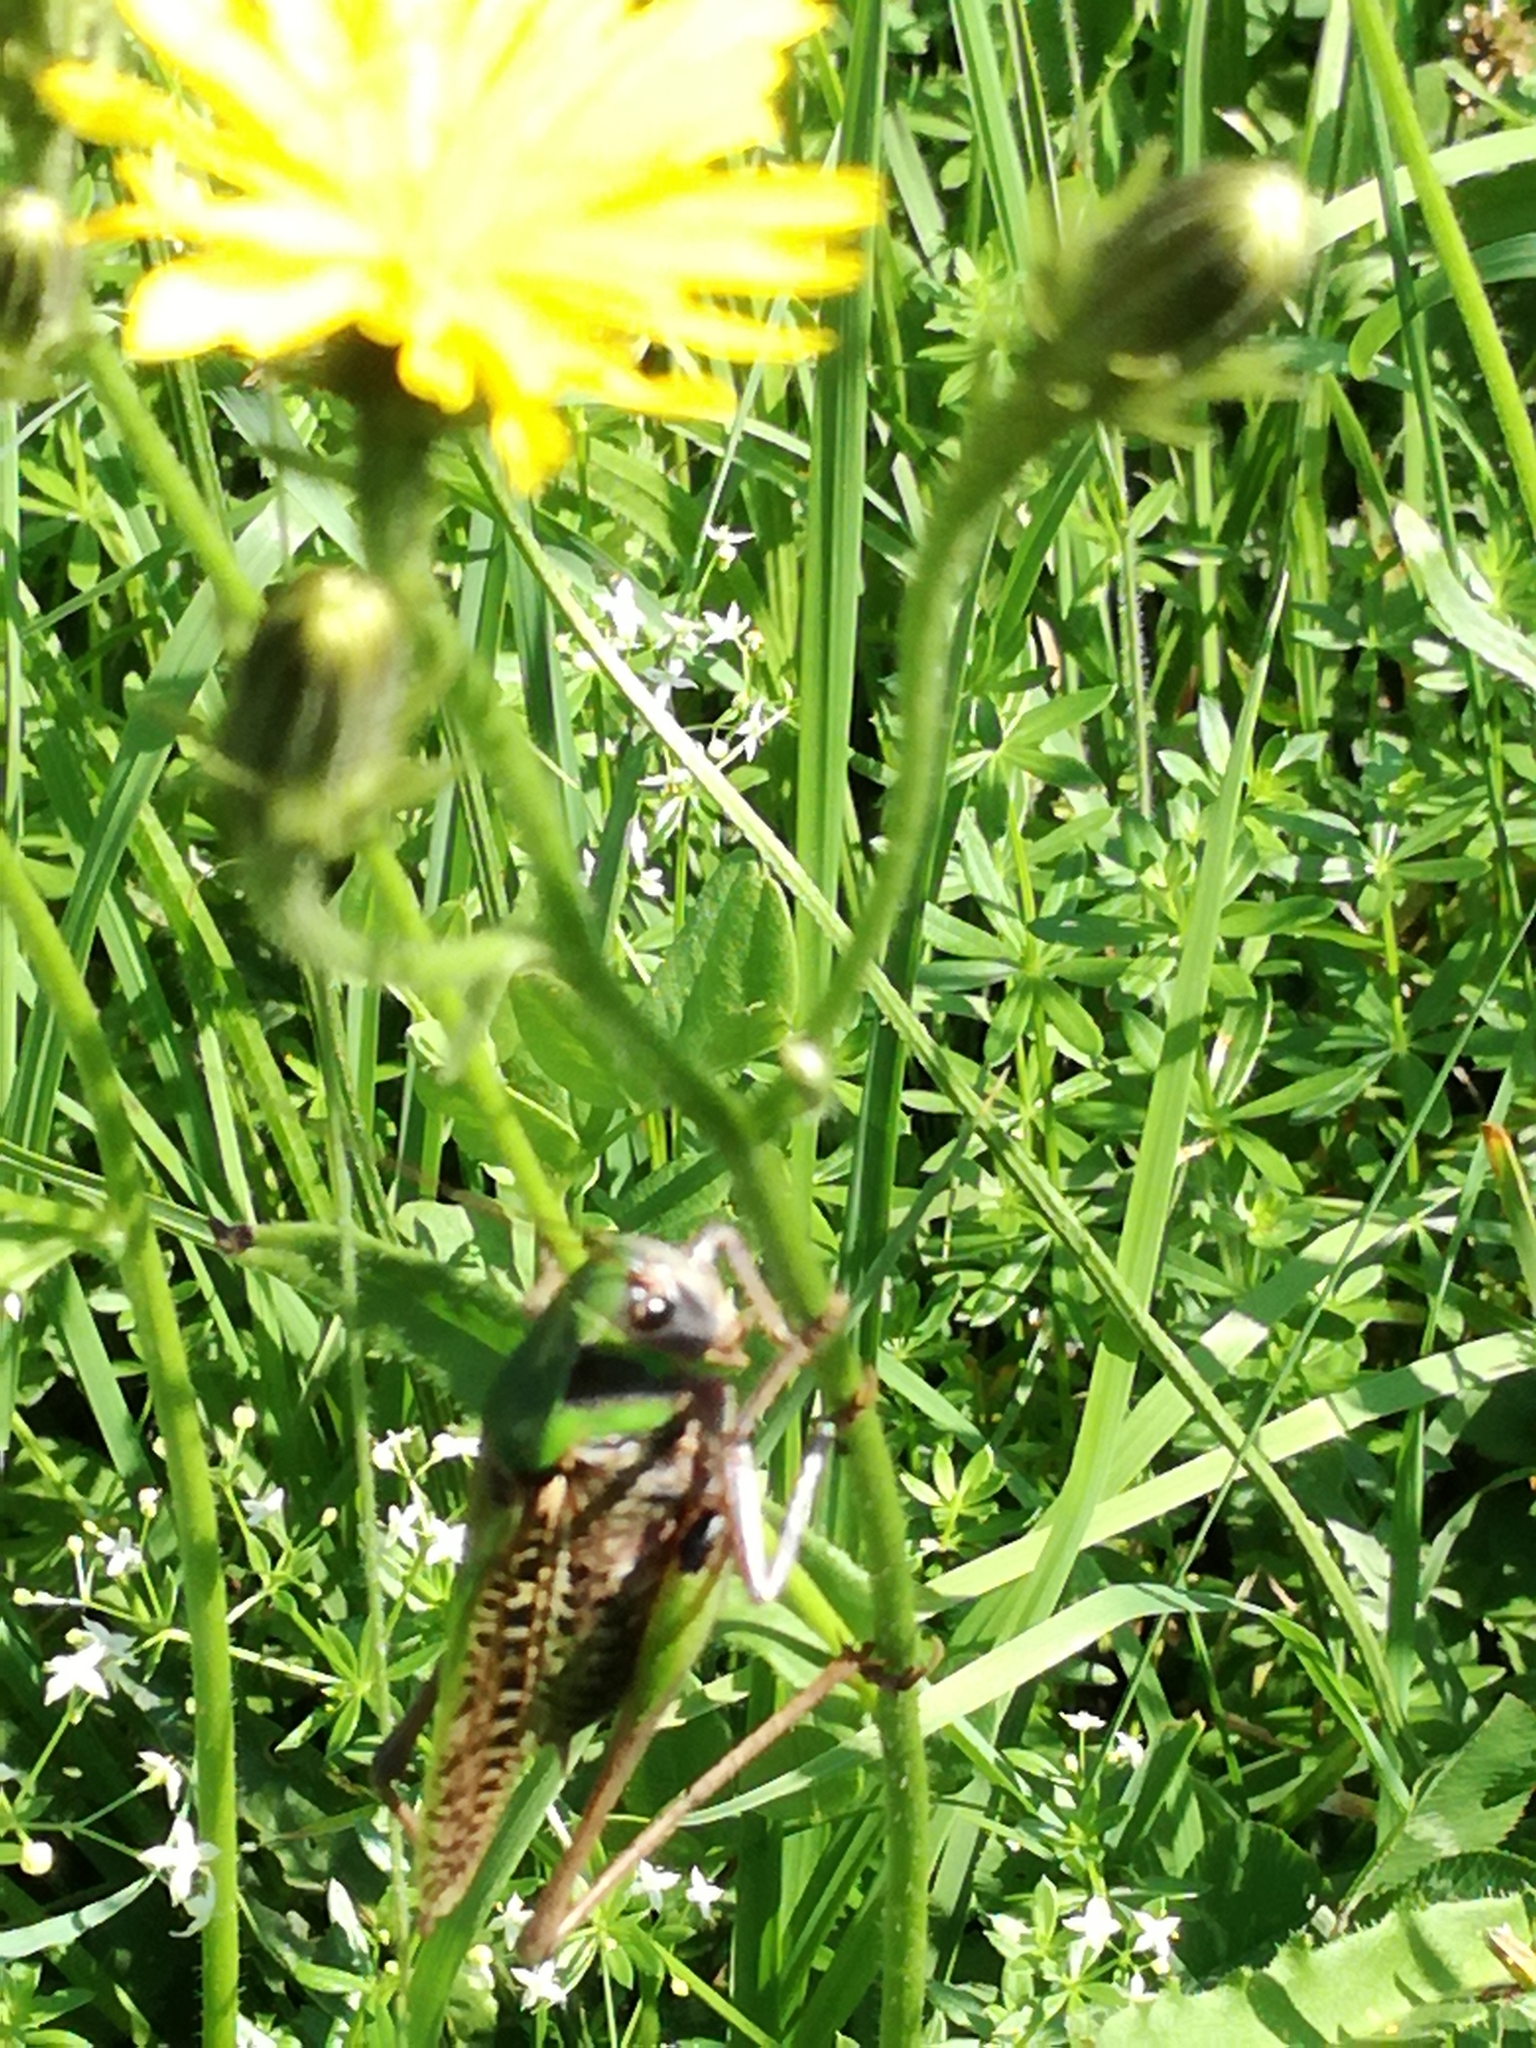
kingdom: Animalia
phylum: Arthropoda
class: Insecta
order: Orthoptera
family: Tettigoniidae
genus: Decticus
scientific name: Decticus verrucivorus
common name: Wart-biter
